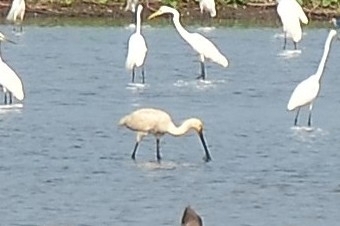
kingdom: Animalia
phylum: Chordata
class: Aves
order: Pelecaniformes
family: Threskiornithidae
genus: Platalea
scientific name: Platalea leucorodia
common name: Eurasian spoonbill
